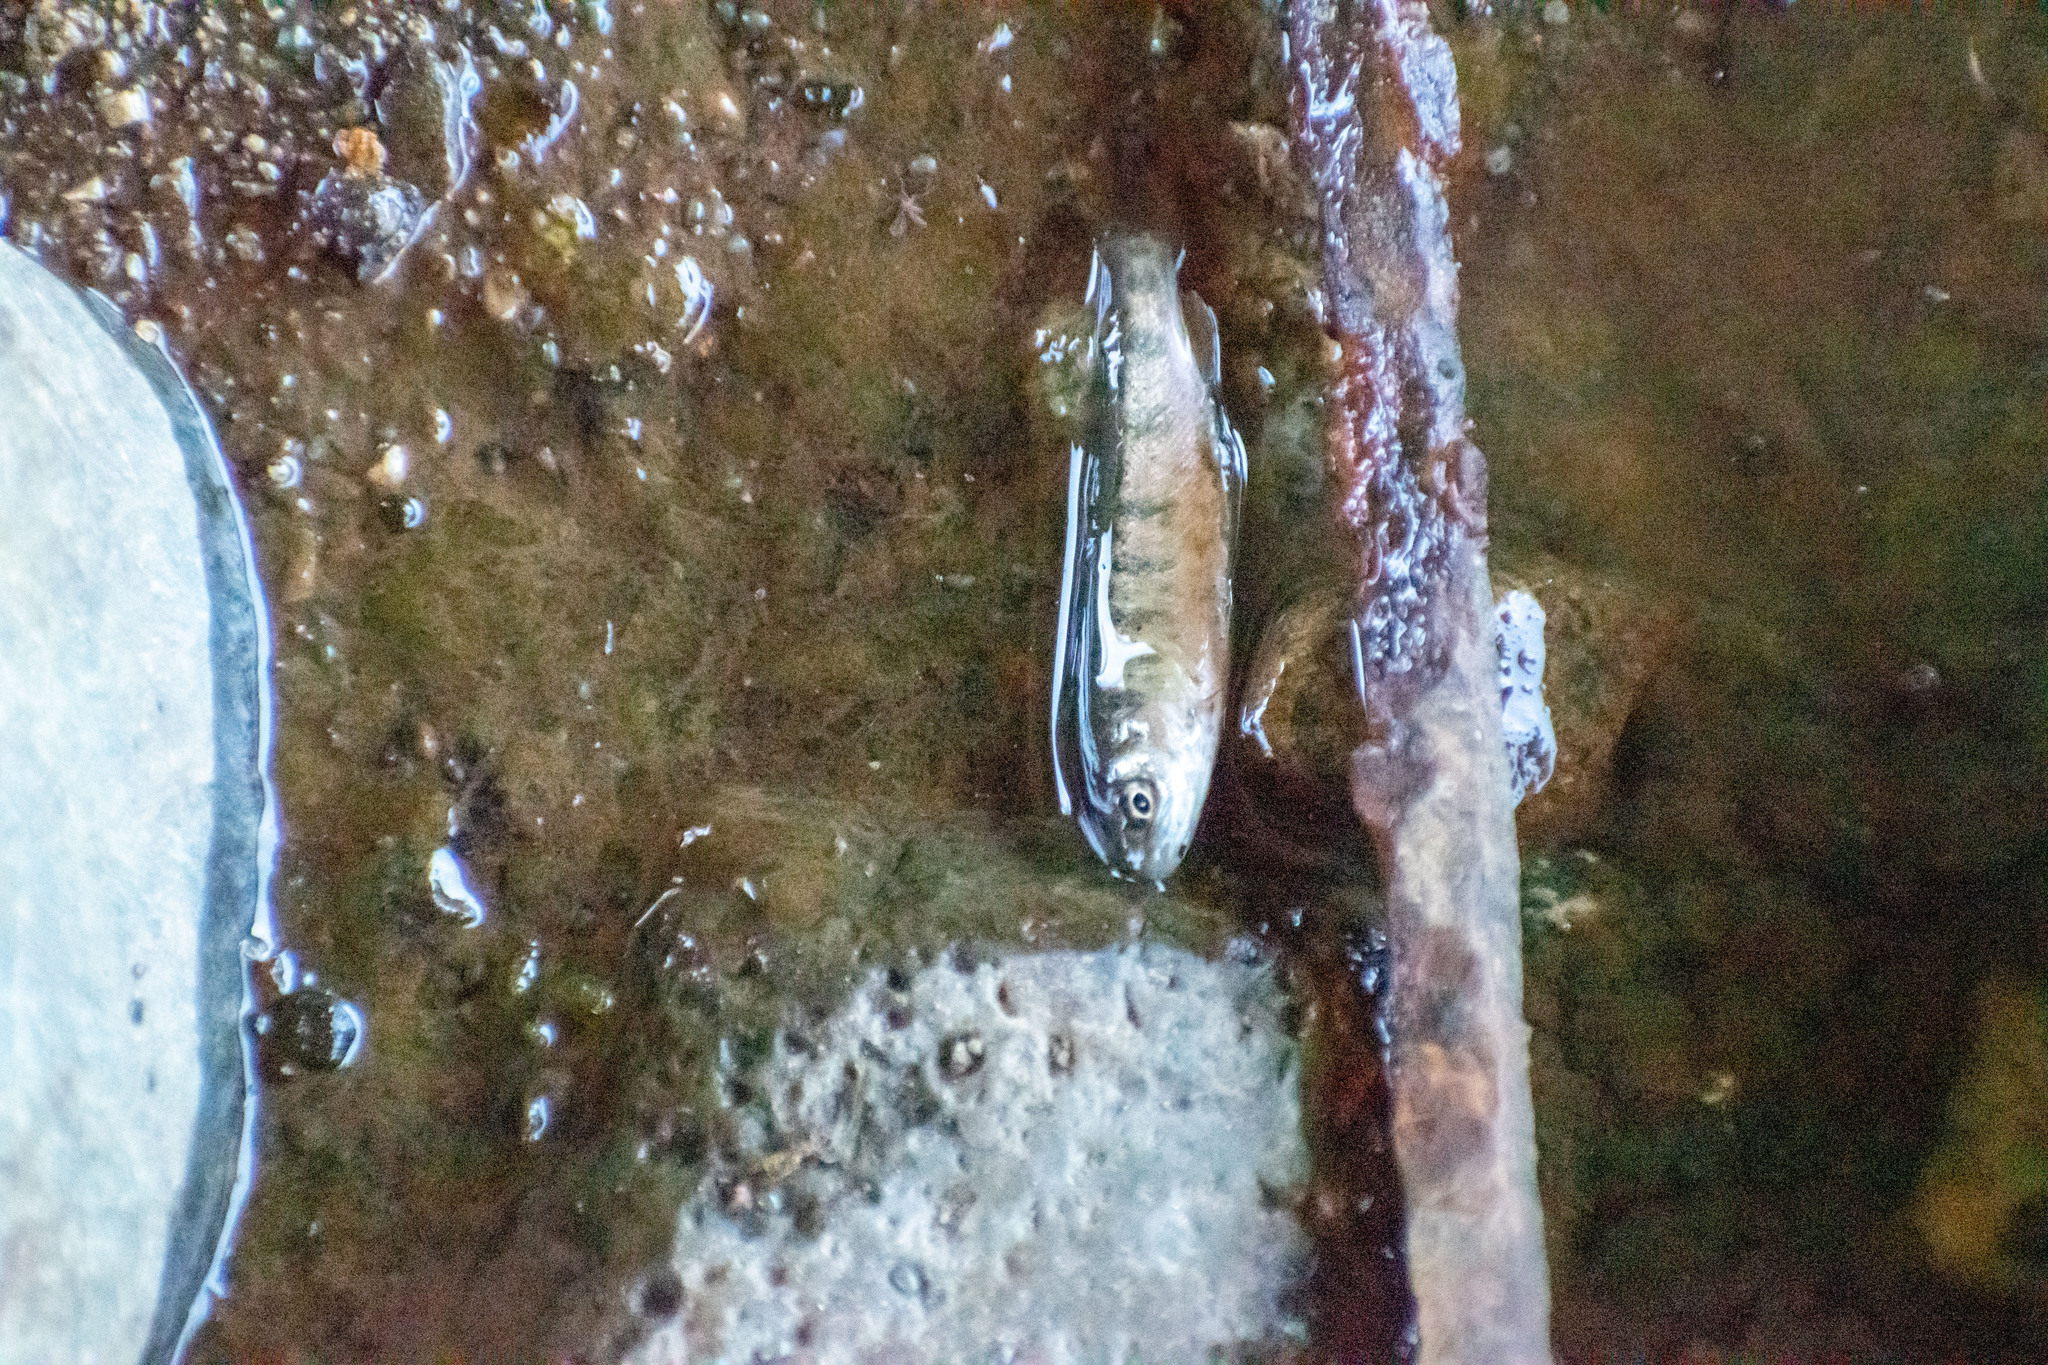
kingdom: Animalia
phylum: Chordata
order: Salmoniformes
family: Salmonidae
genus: Oncorhynchus
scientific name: Oncorhynchus mykiss
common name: Rainbow trout
